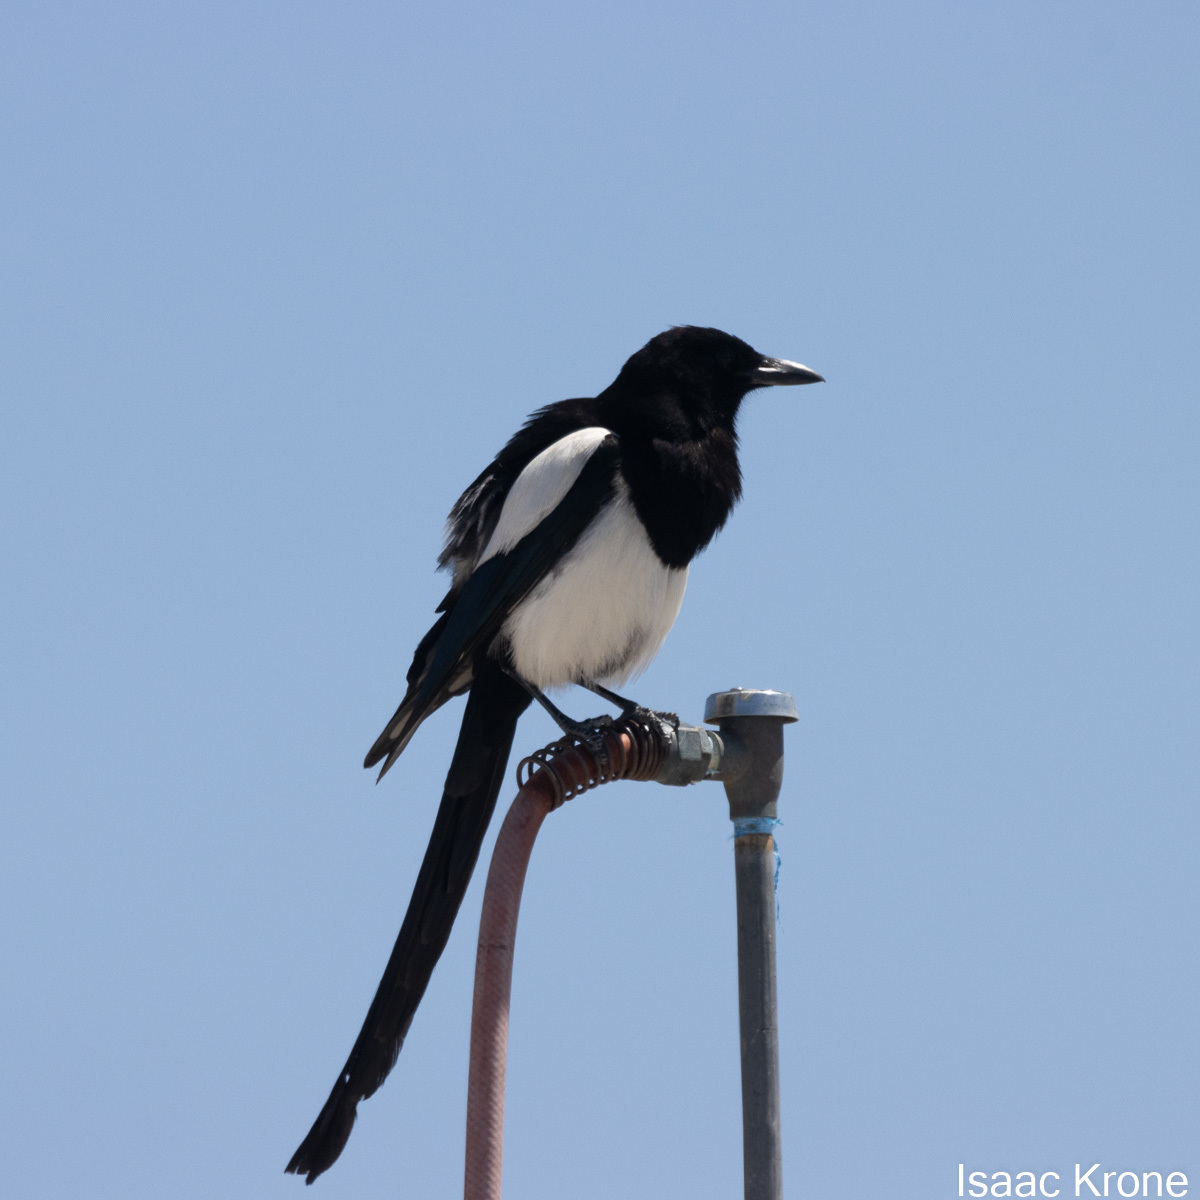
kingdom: Animalia
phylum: Chordata
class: Aves
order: Passeriformes
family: Corvidae
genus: Pica
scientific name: Pica hudsonia
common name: Black-billed magpie
